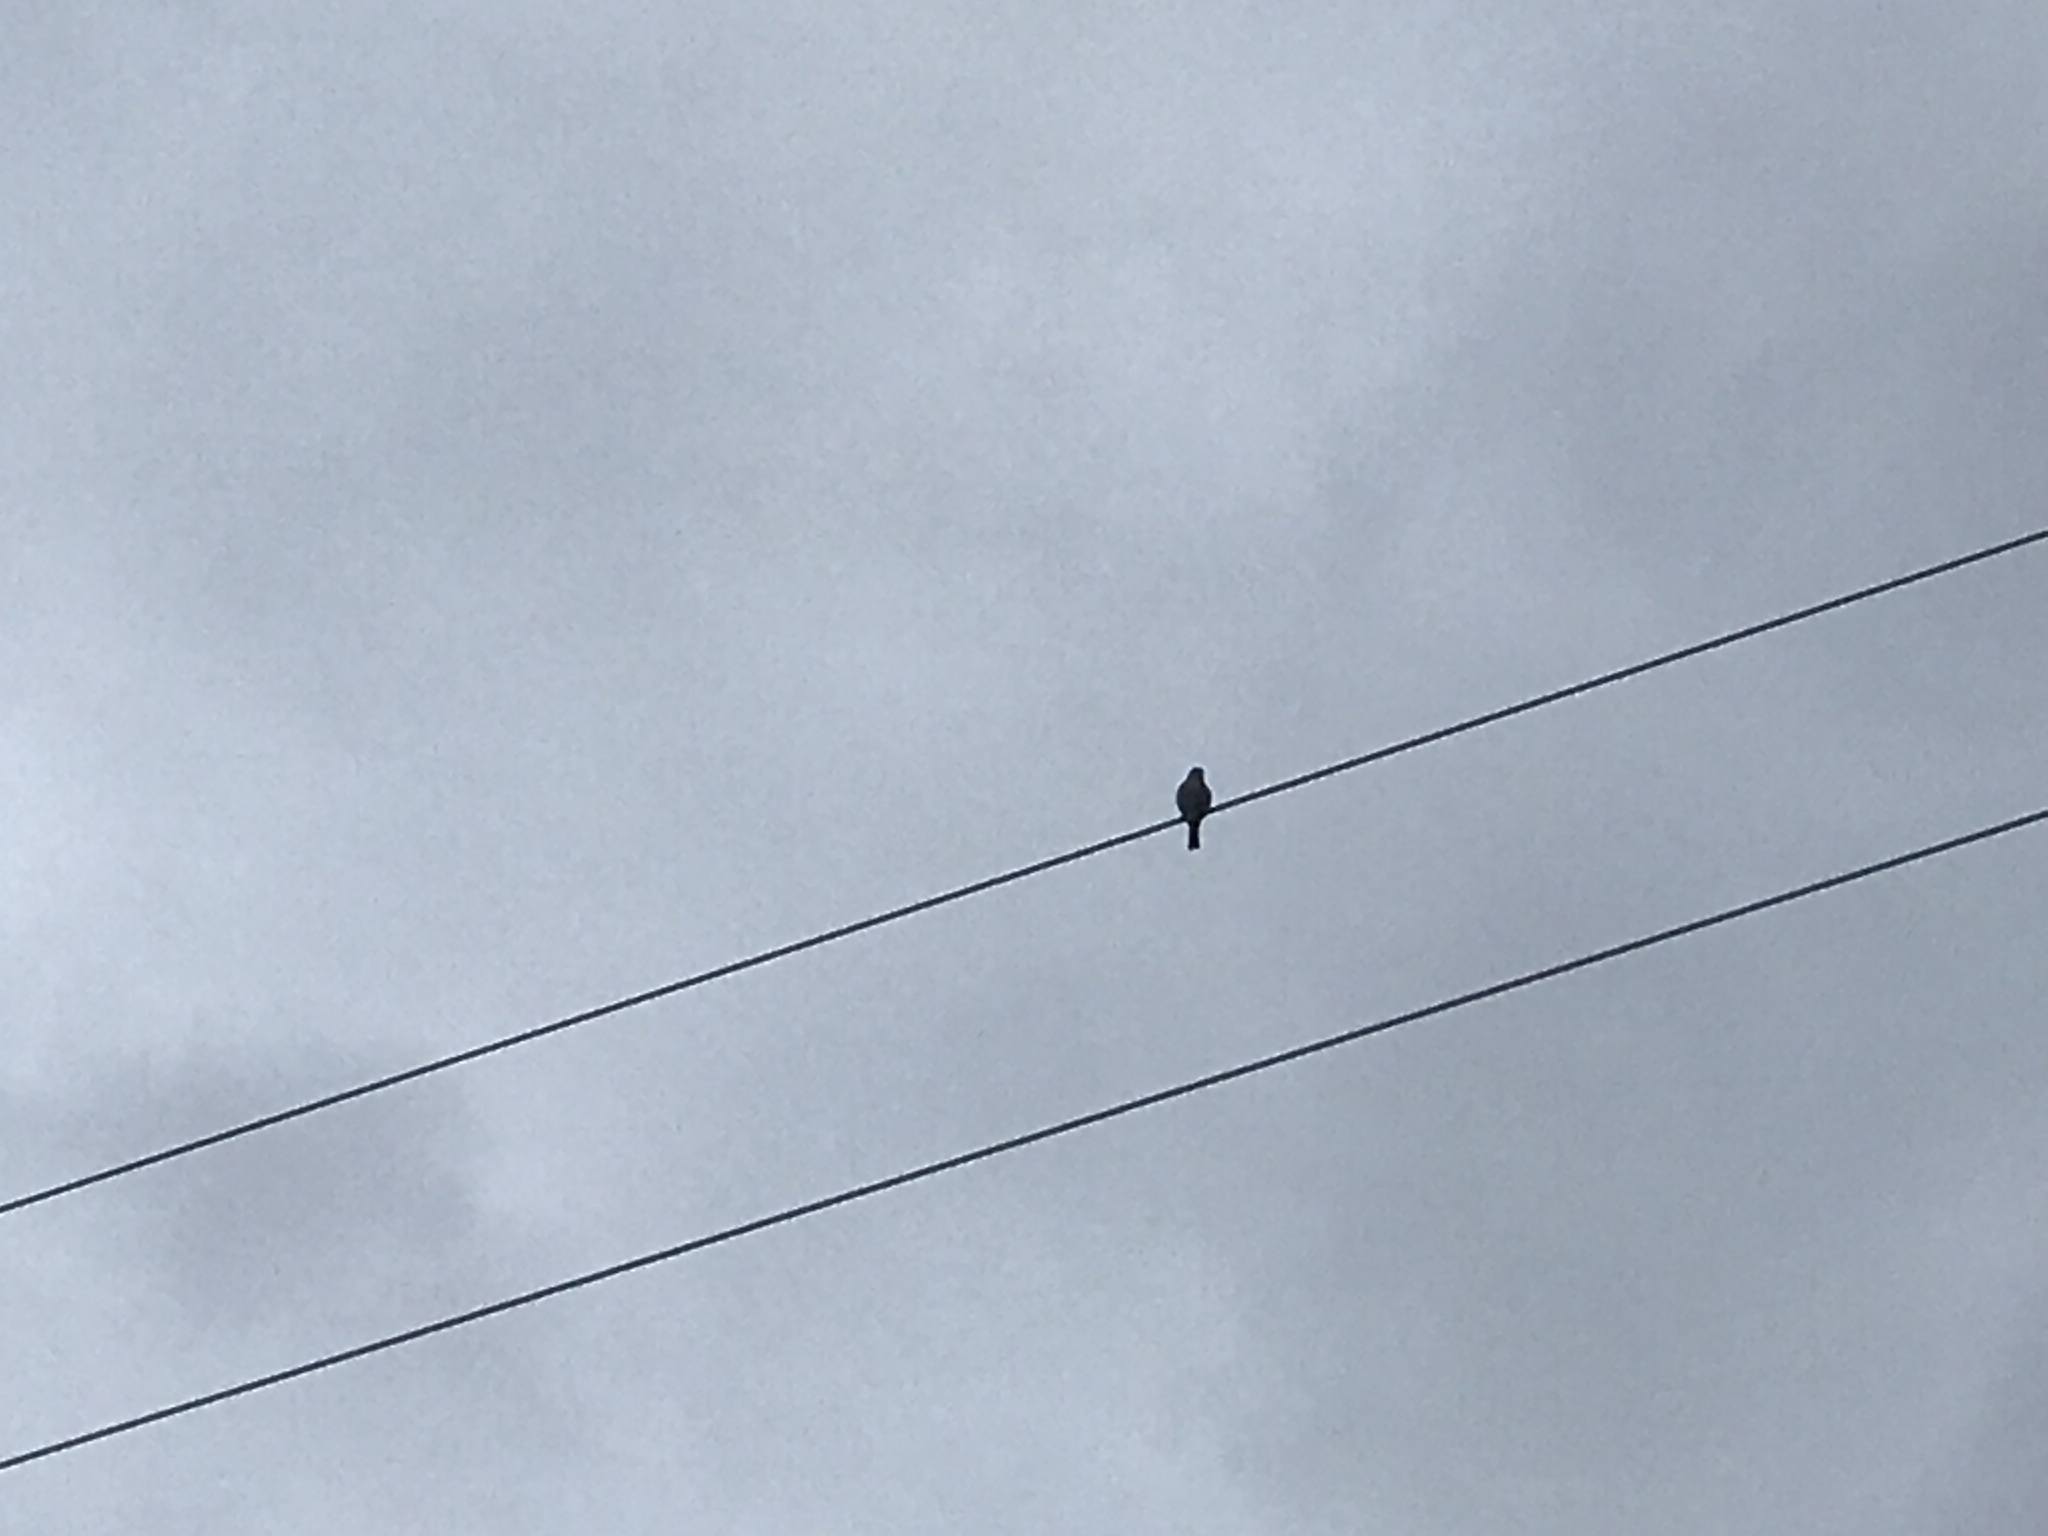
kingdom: Animalia
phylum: Chordata
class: Aves
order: Passeriformes
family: Fringillidae
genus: Haemorhous
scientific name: Haemorhous mexicanus
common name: House finch
